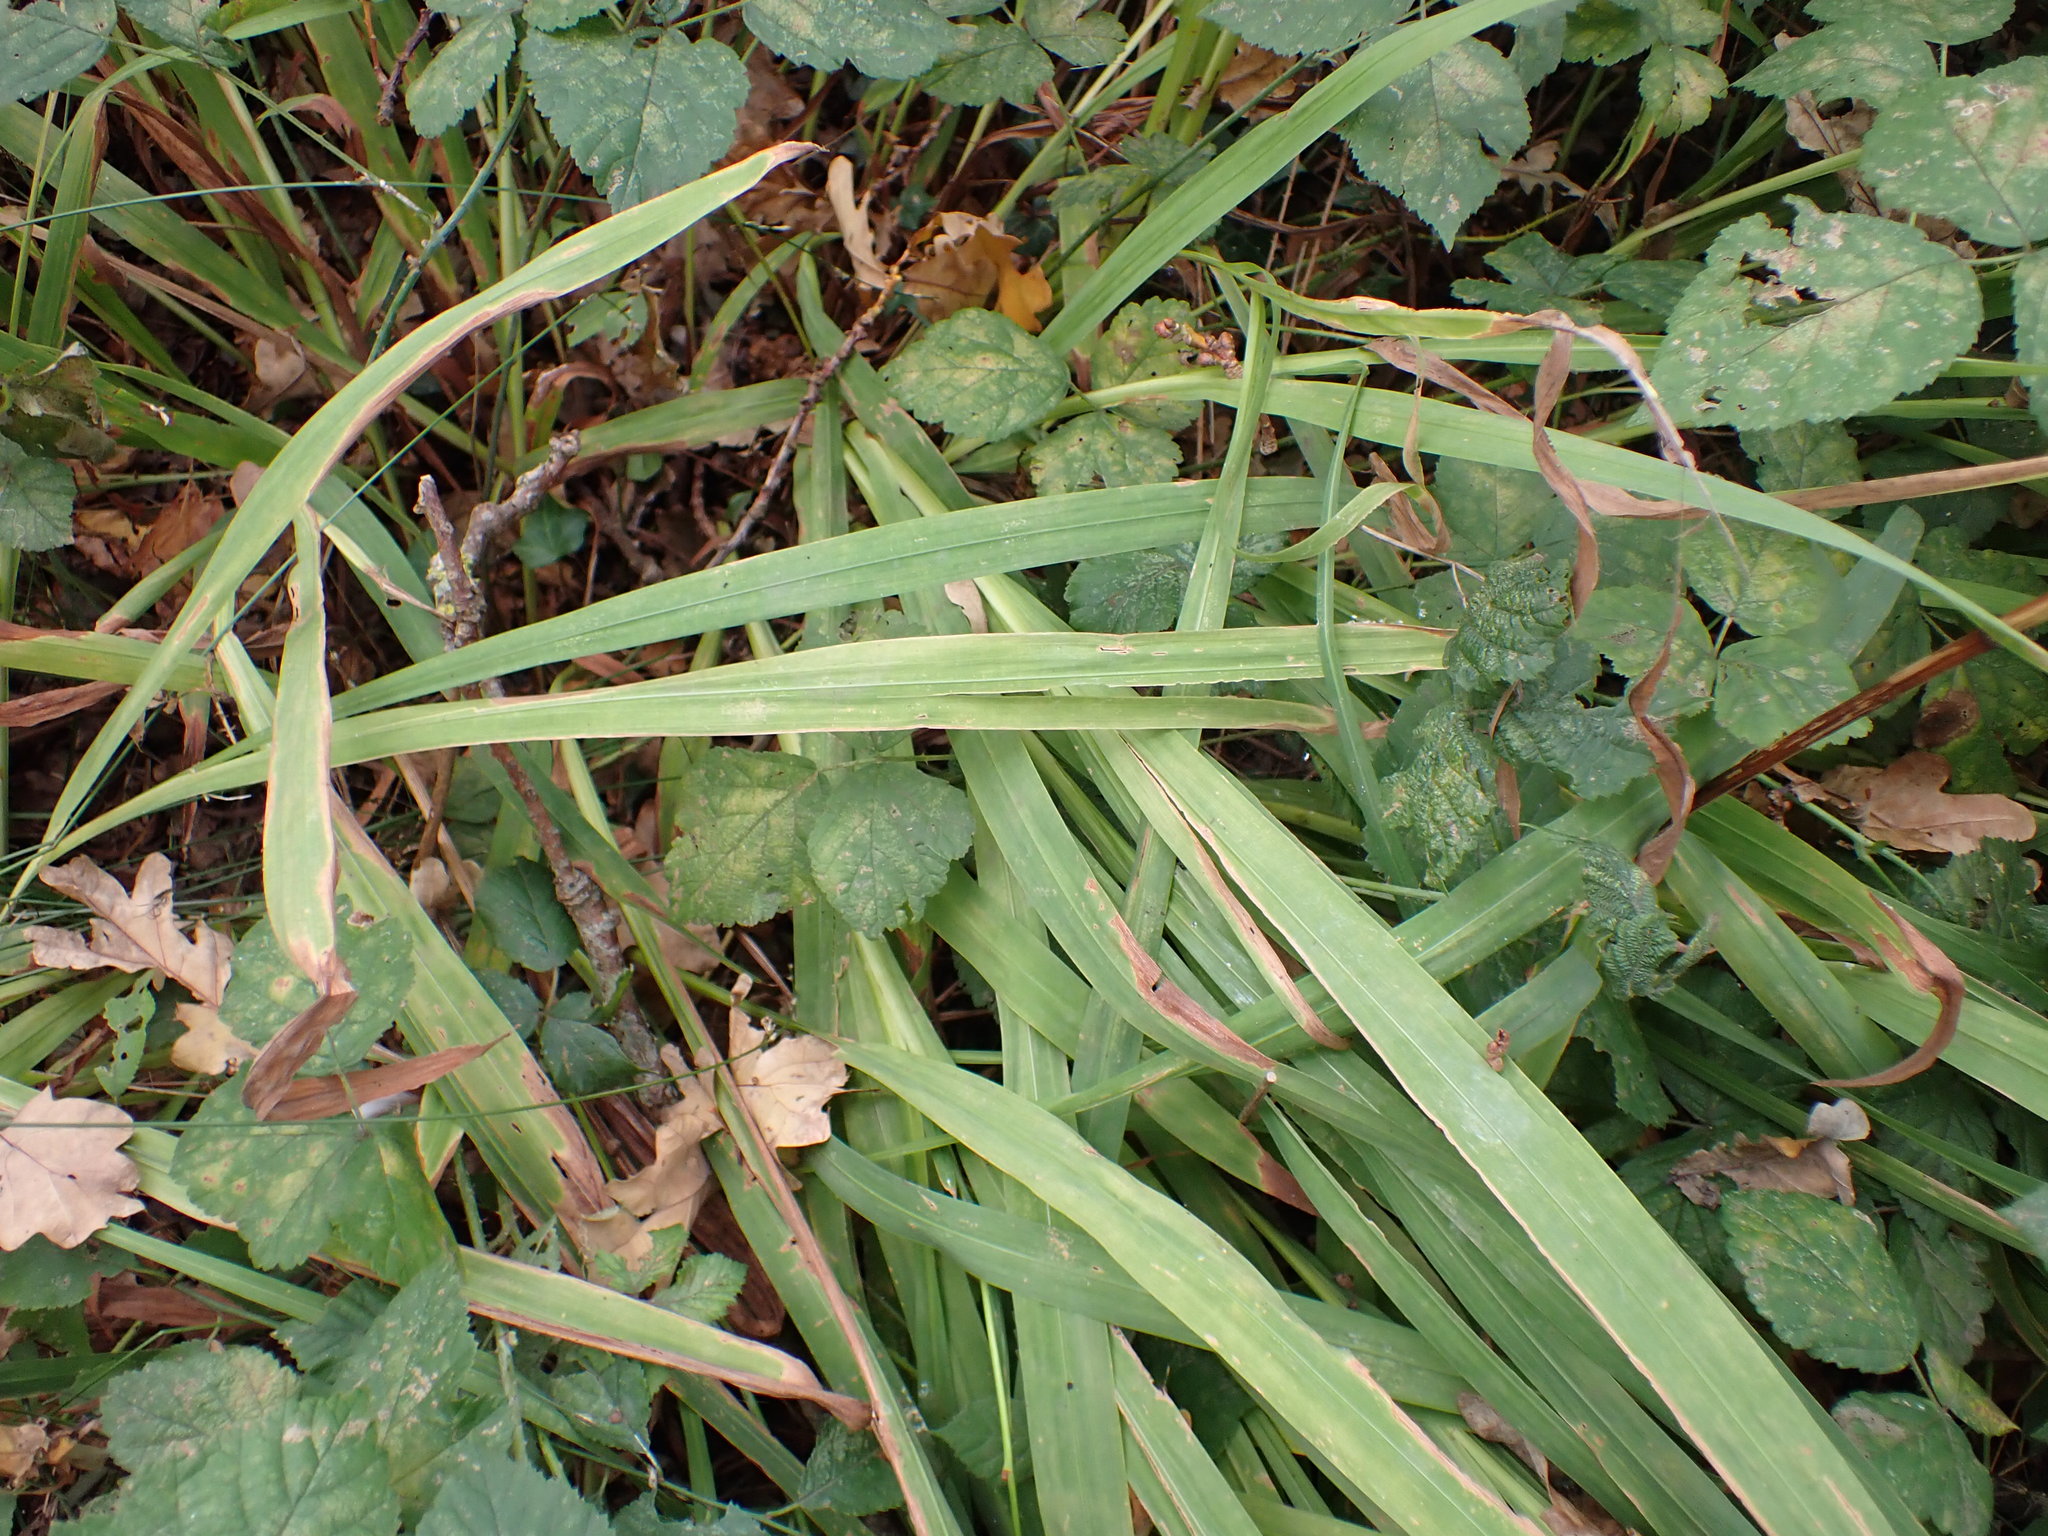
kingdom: Plantae
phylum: Tracheophyta
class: Liliopsida
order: Asparagales
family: Iridaceae
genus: Crocosmia
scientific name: Crocosmia crocosmiiflora
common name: Montbretia
